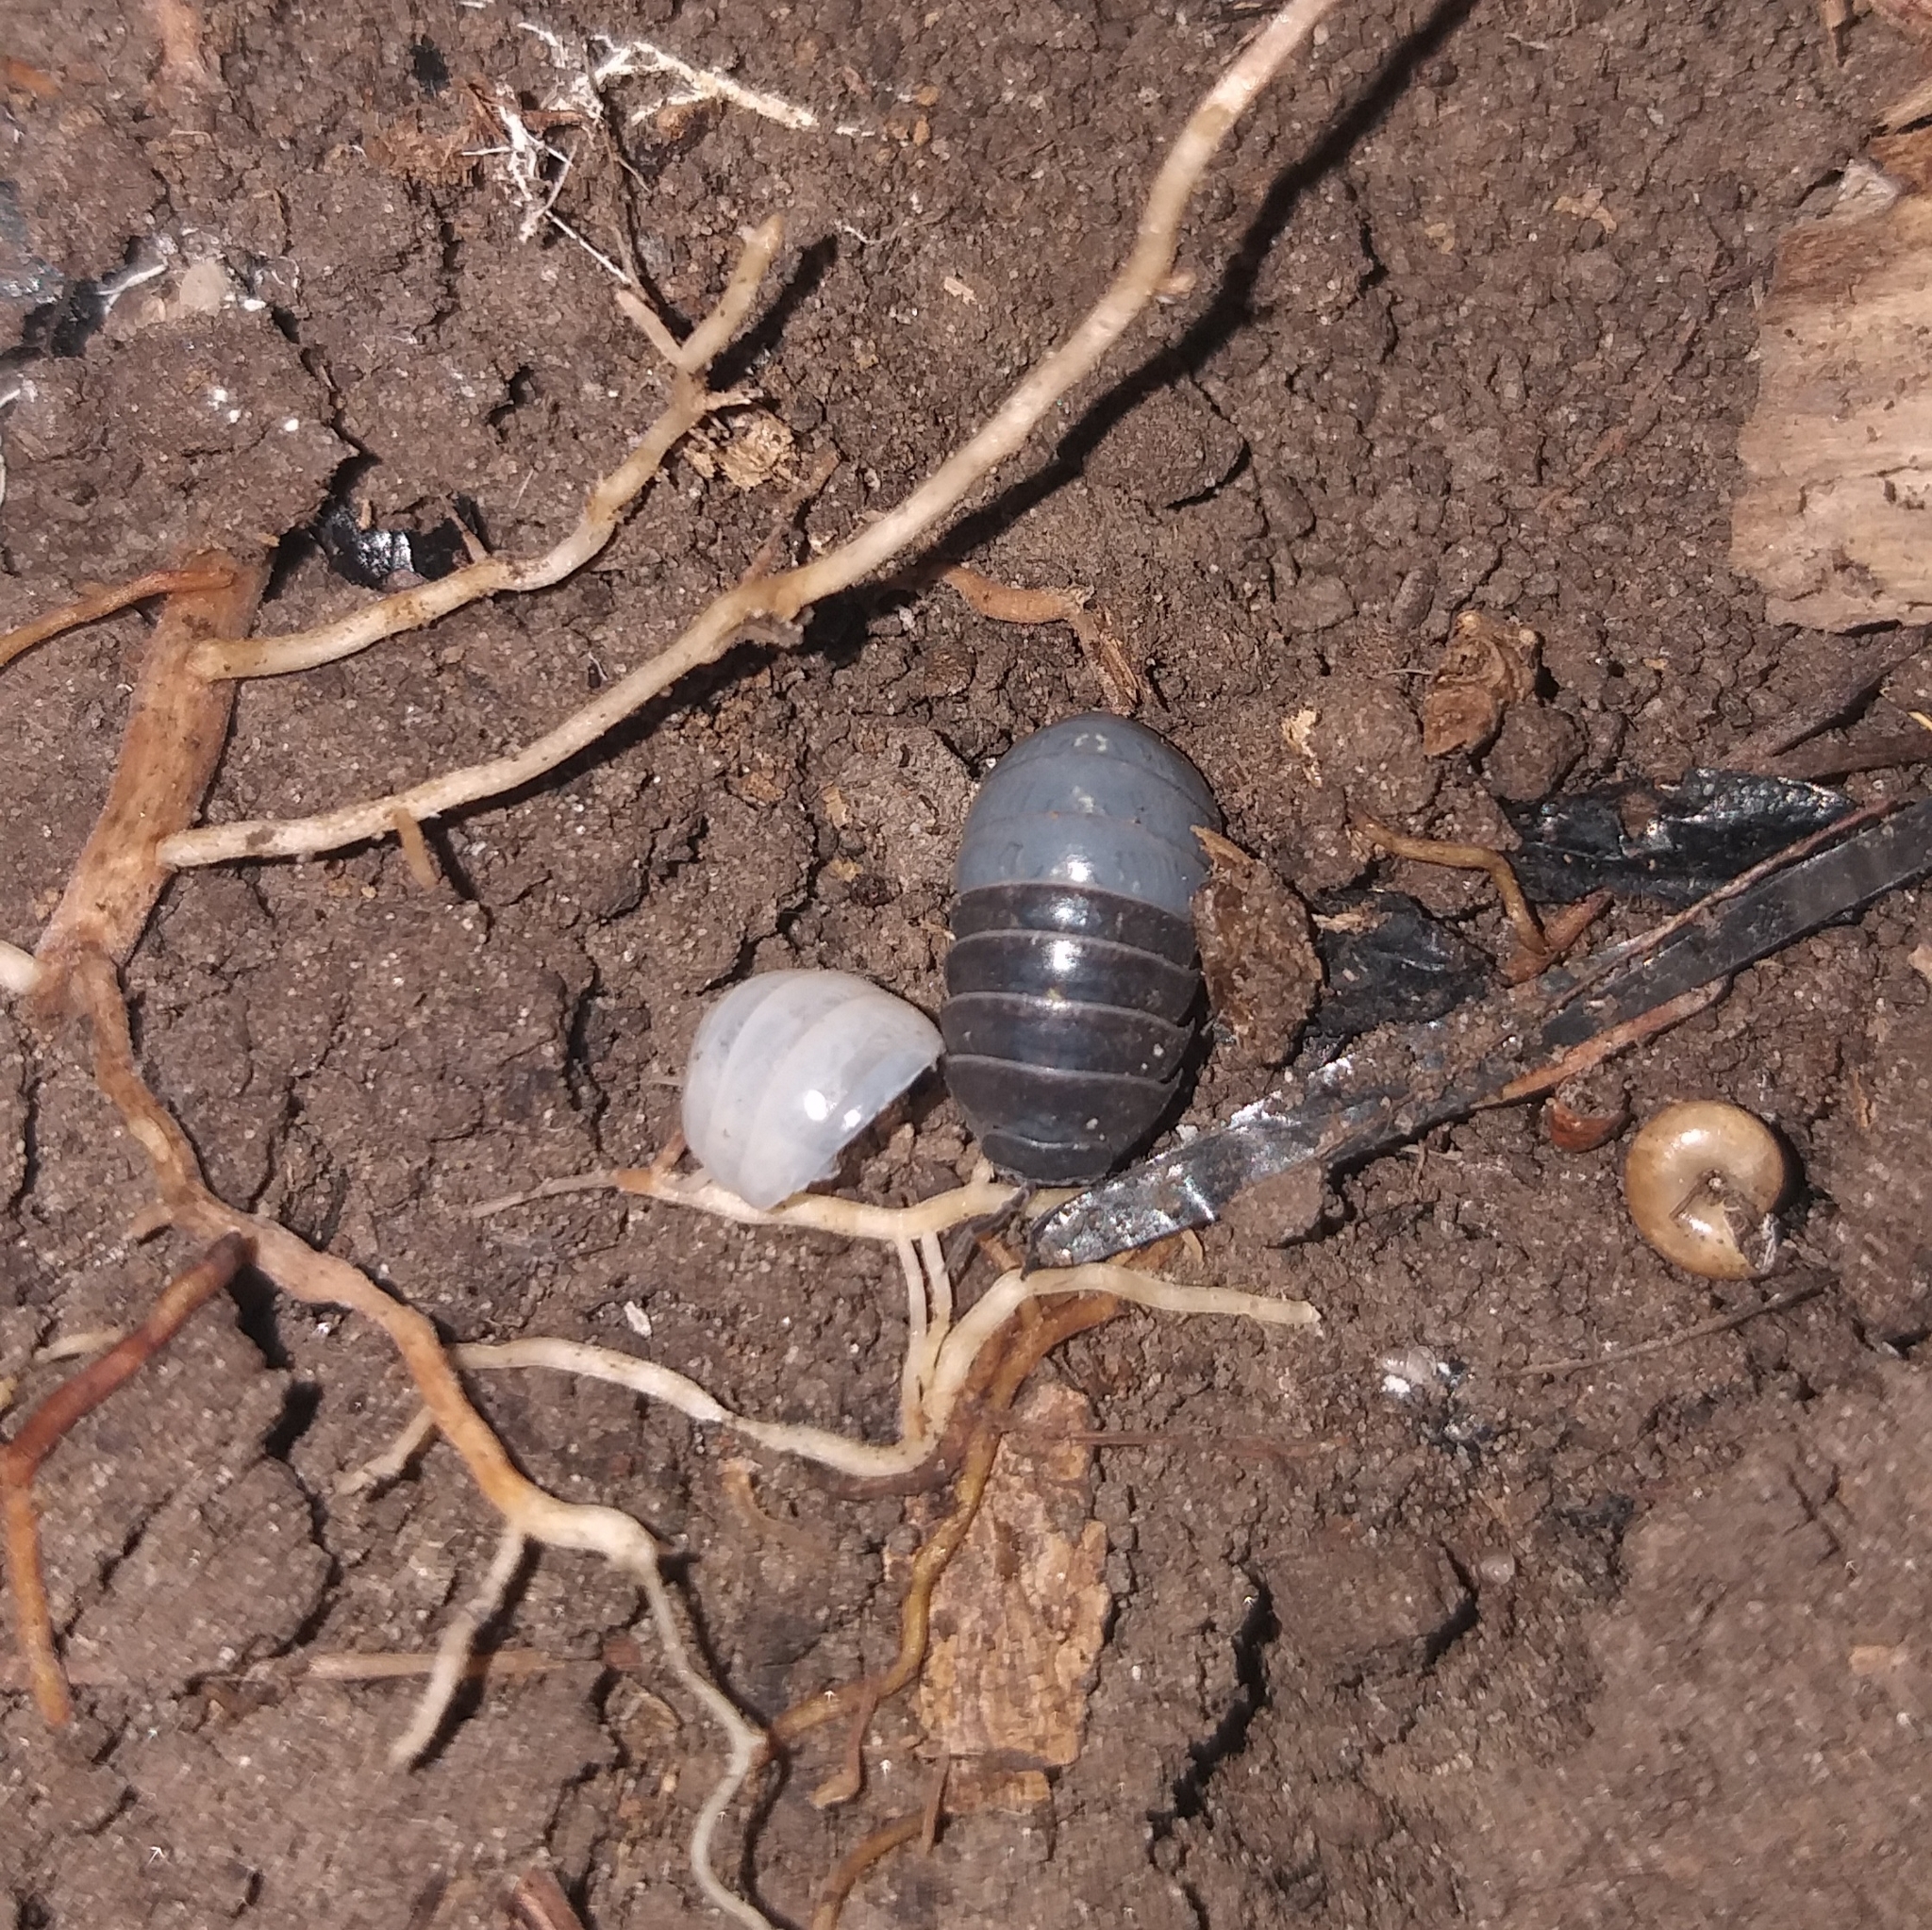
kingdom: Animalia
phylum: Arthropoda
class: Malacostraca
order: Isopoda
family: Armadillidiidae
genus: Armadillidium
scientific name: Armadillidium vulgare
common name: Common pill woodlouse
